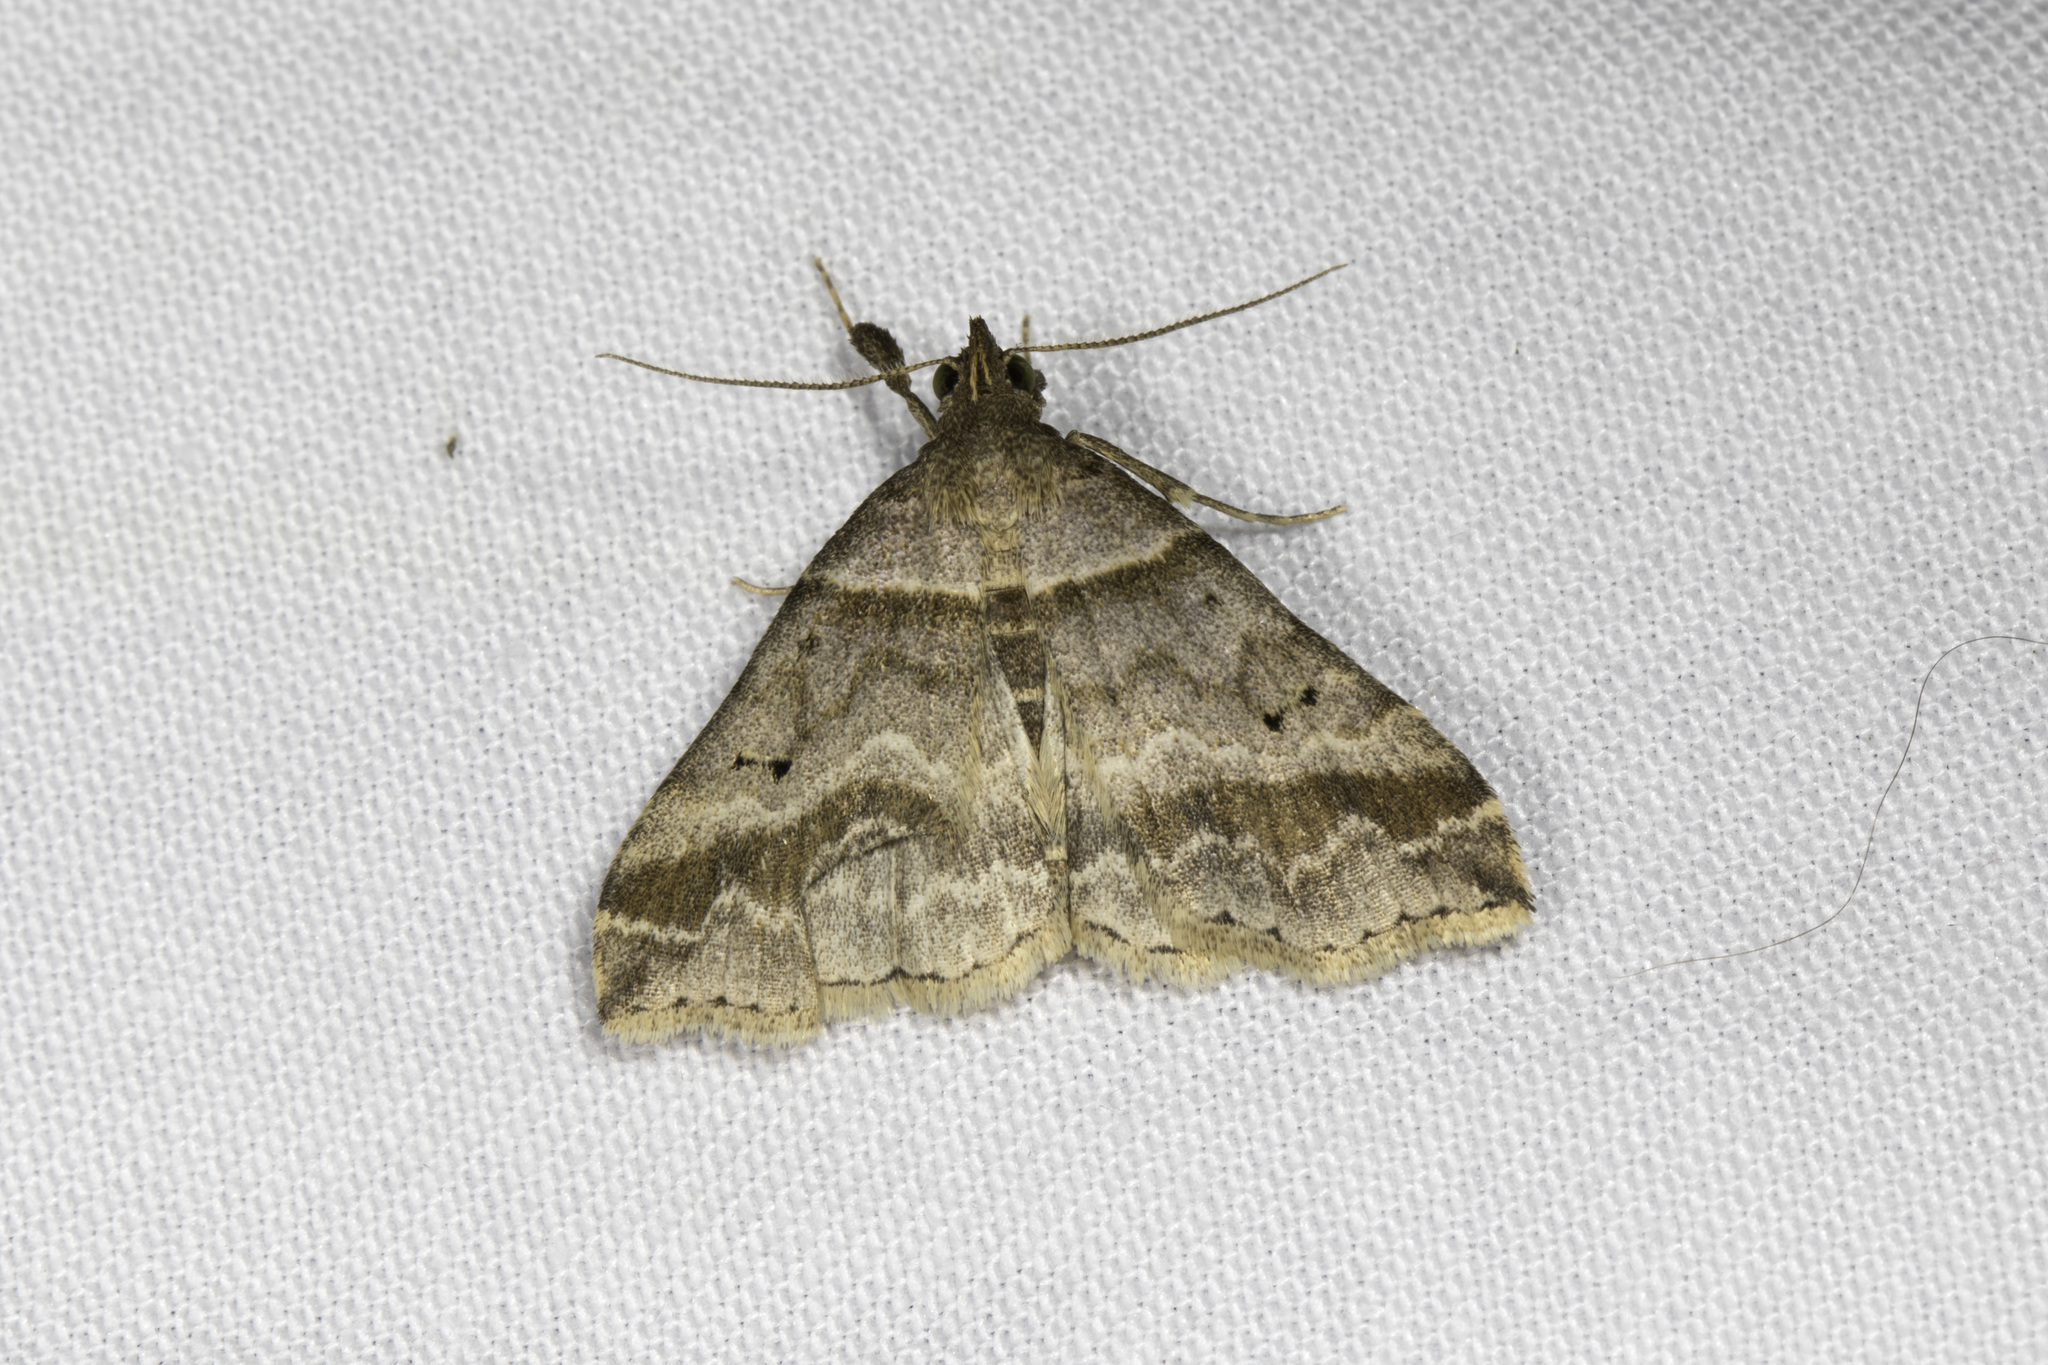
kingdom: Animalia
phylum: Arthropoda
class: Insecta
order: Lepidoptera
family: Erebidae
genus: Phaeolita
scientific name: Phaeolita pyramusalis
